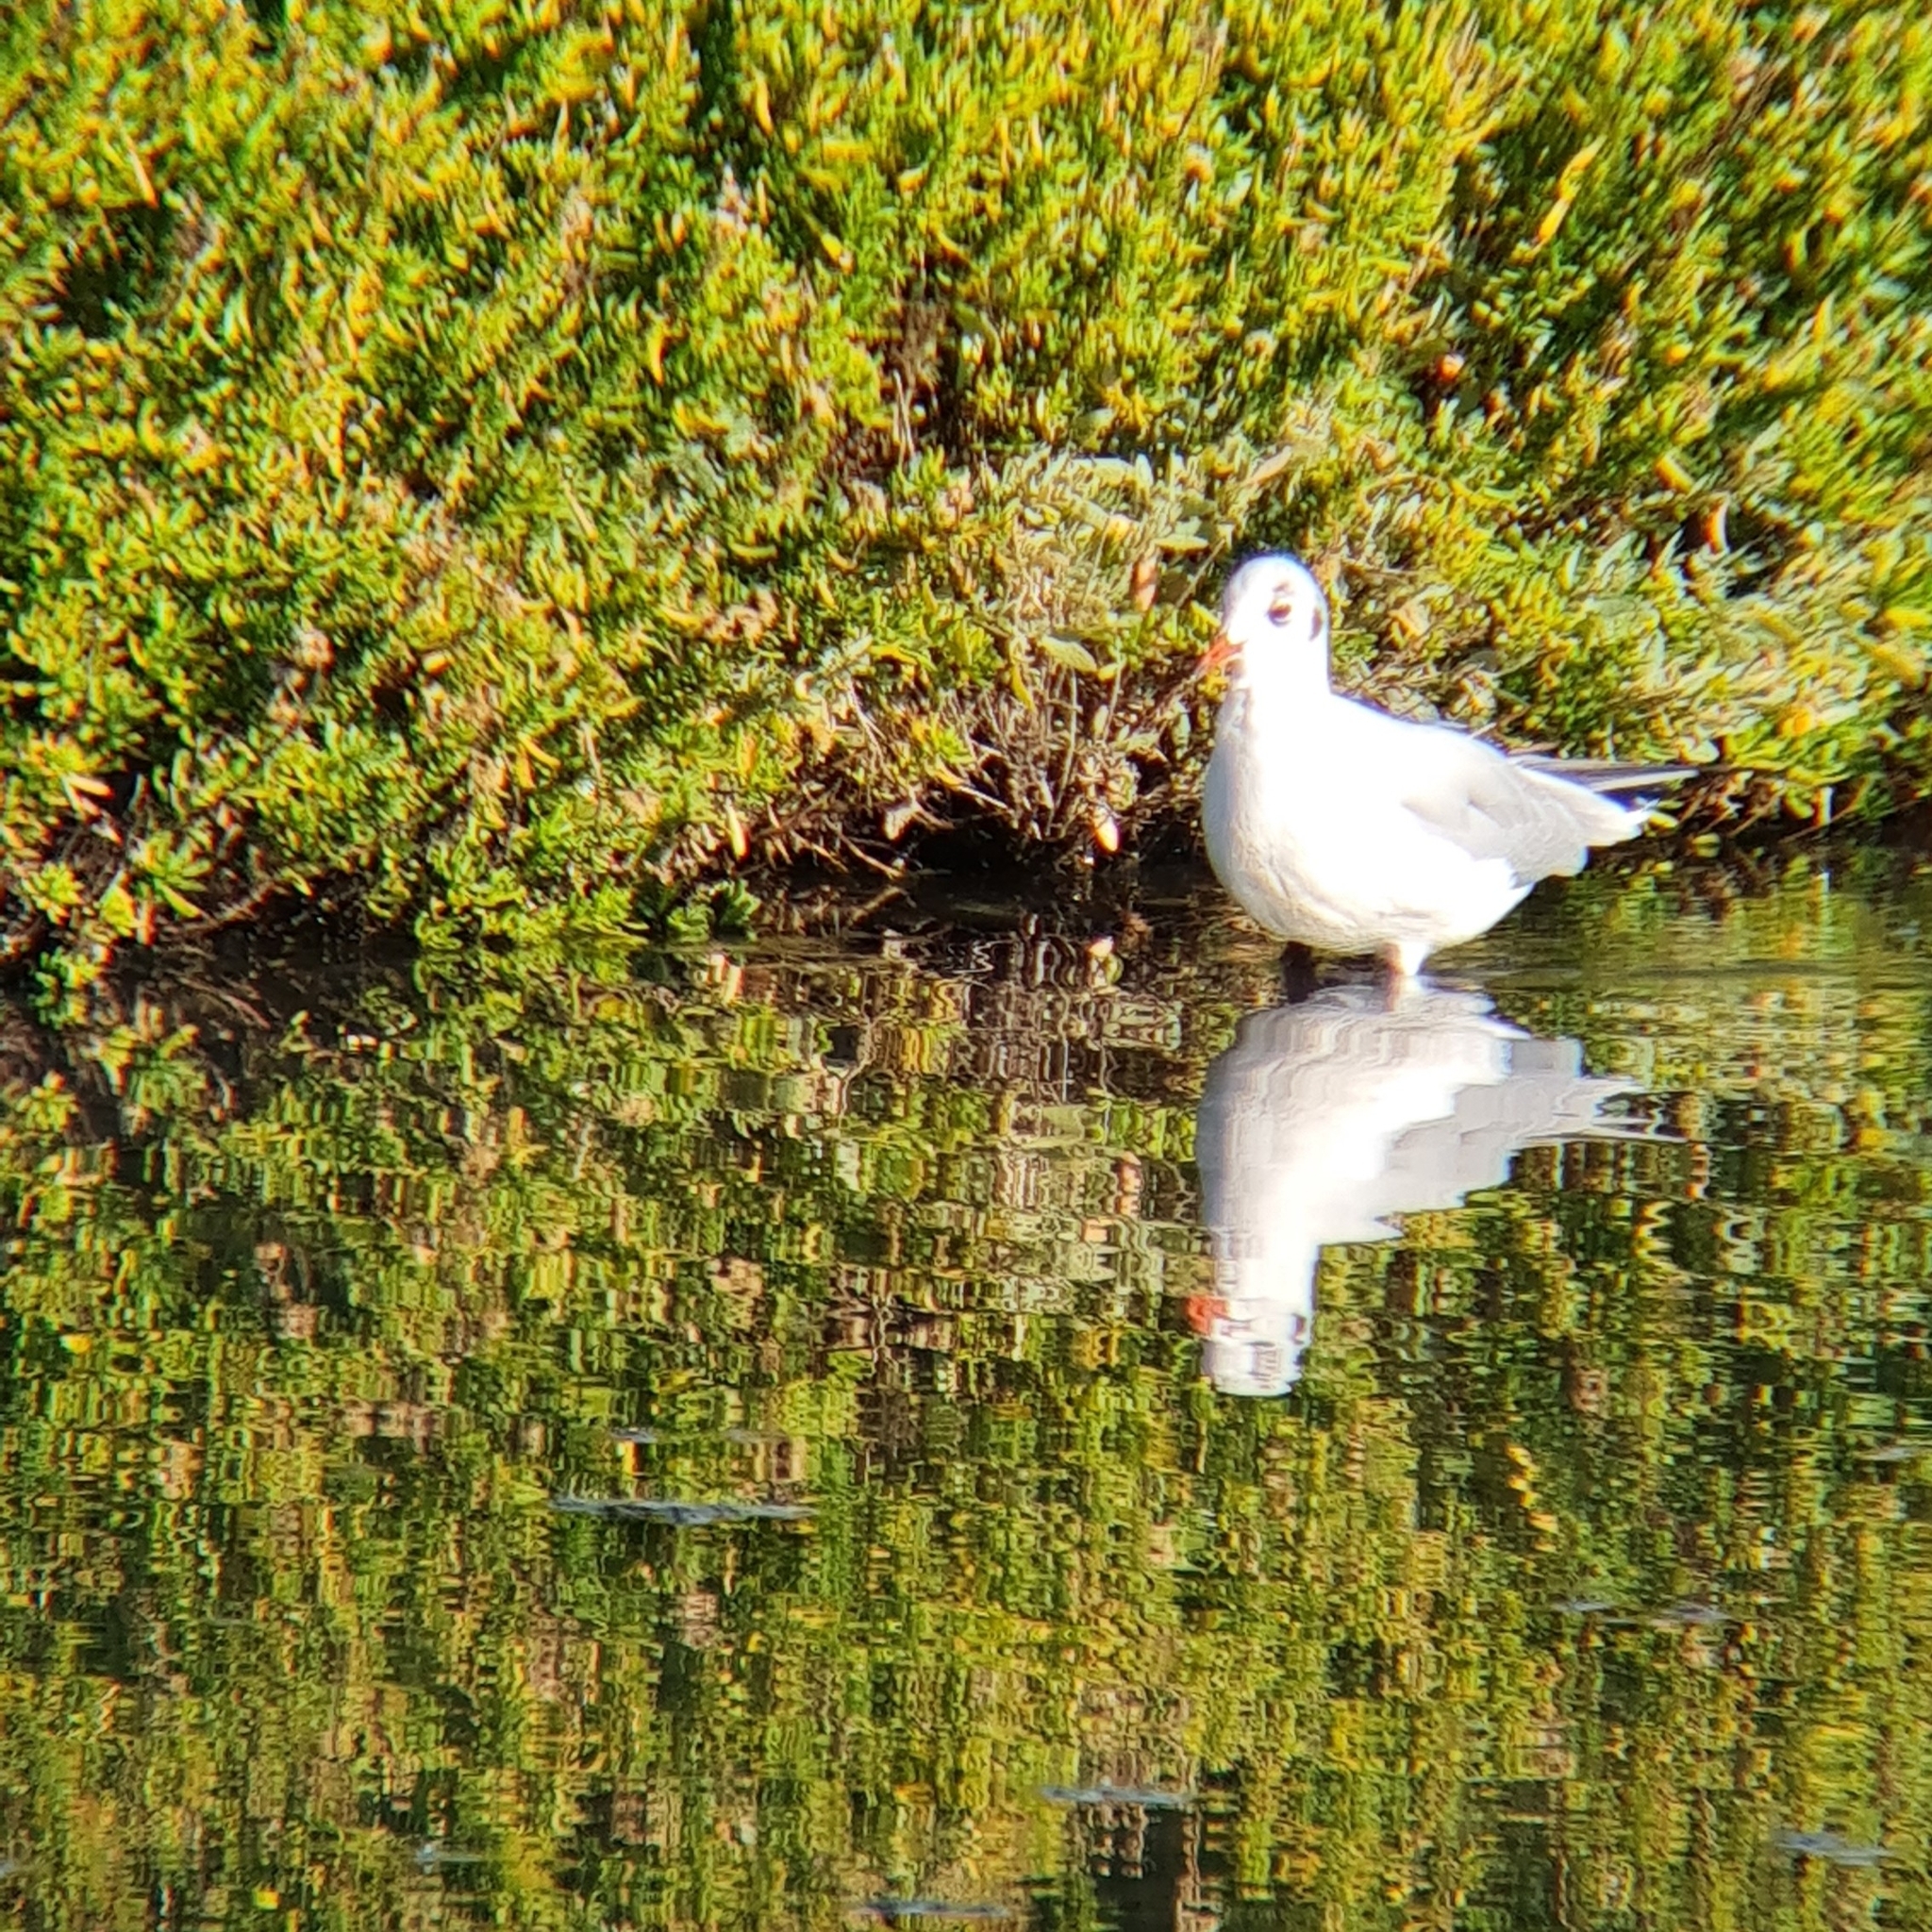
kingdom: Animalia
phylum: Chordata
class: Aves
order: Charadriiformes
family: Laridae
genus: Chroicocephalus
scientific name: Chroicocephalus ridibundus
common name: Black-headed gull
